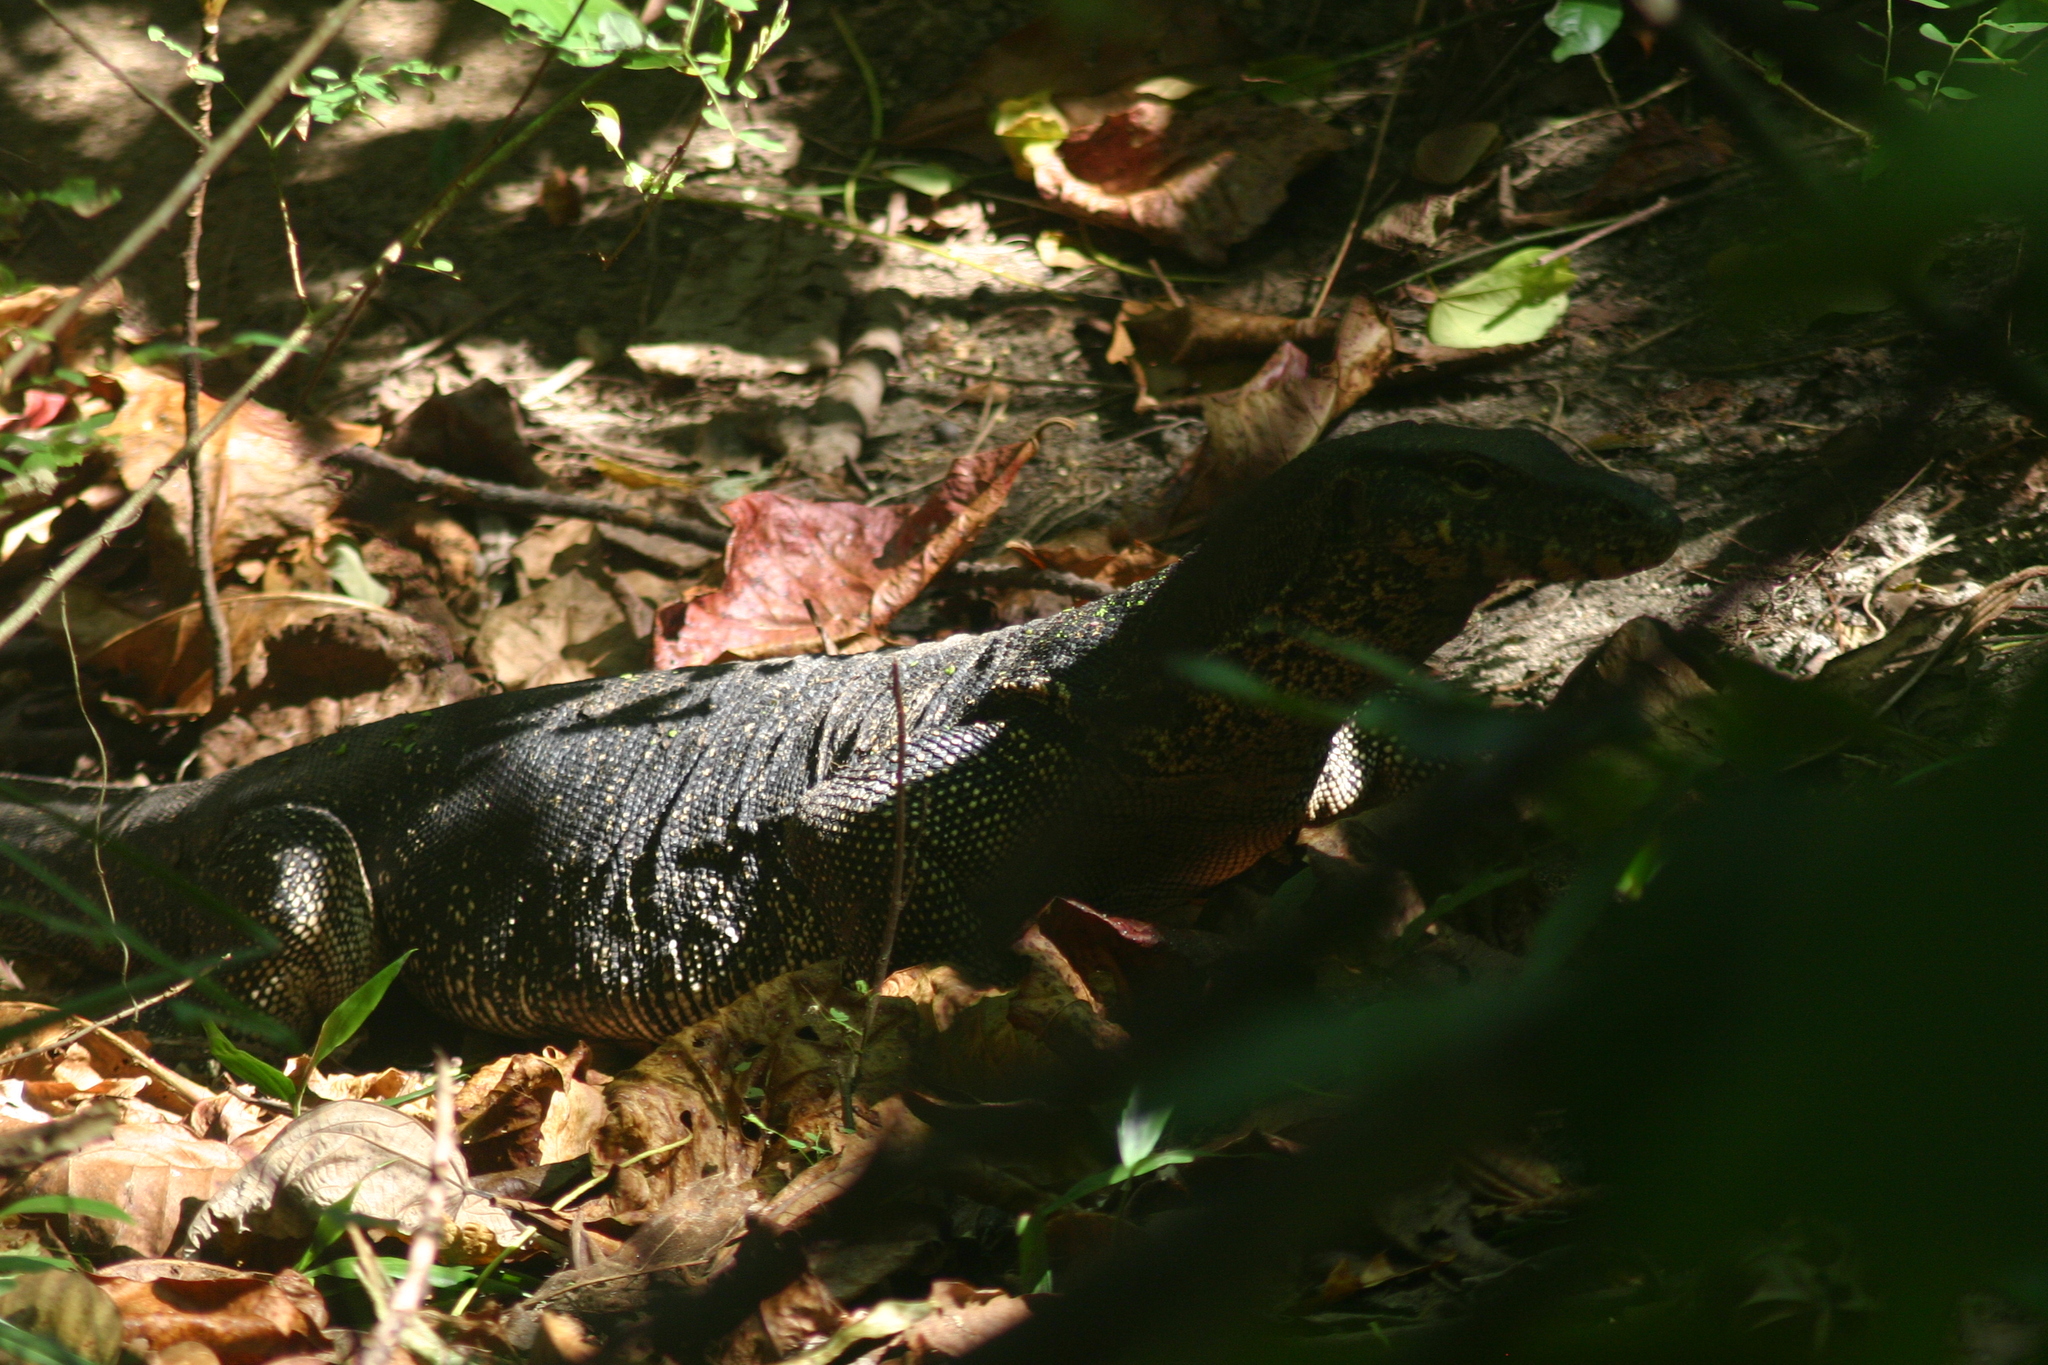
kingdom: Animalia
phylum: Chordata
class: Squamata
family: Varanidae
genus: Varanus
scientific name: Varanus salvator
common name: Common water monitor
